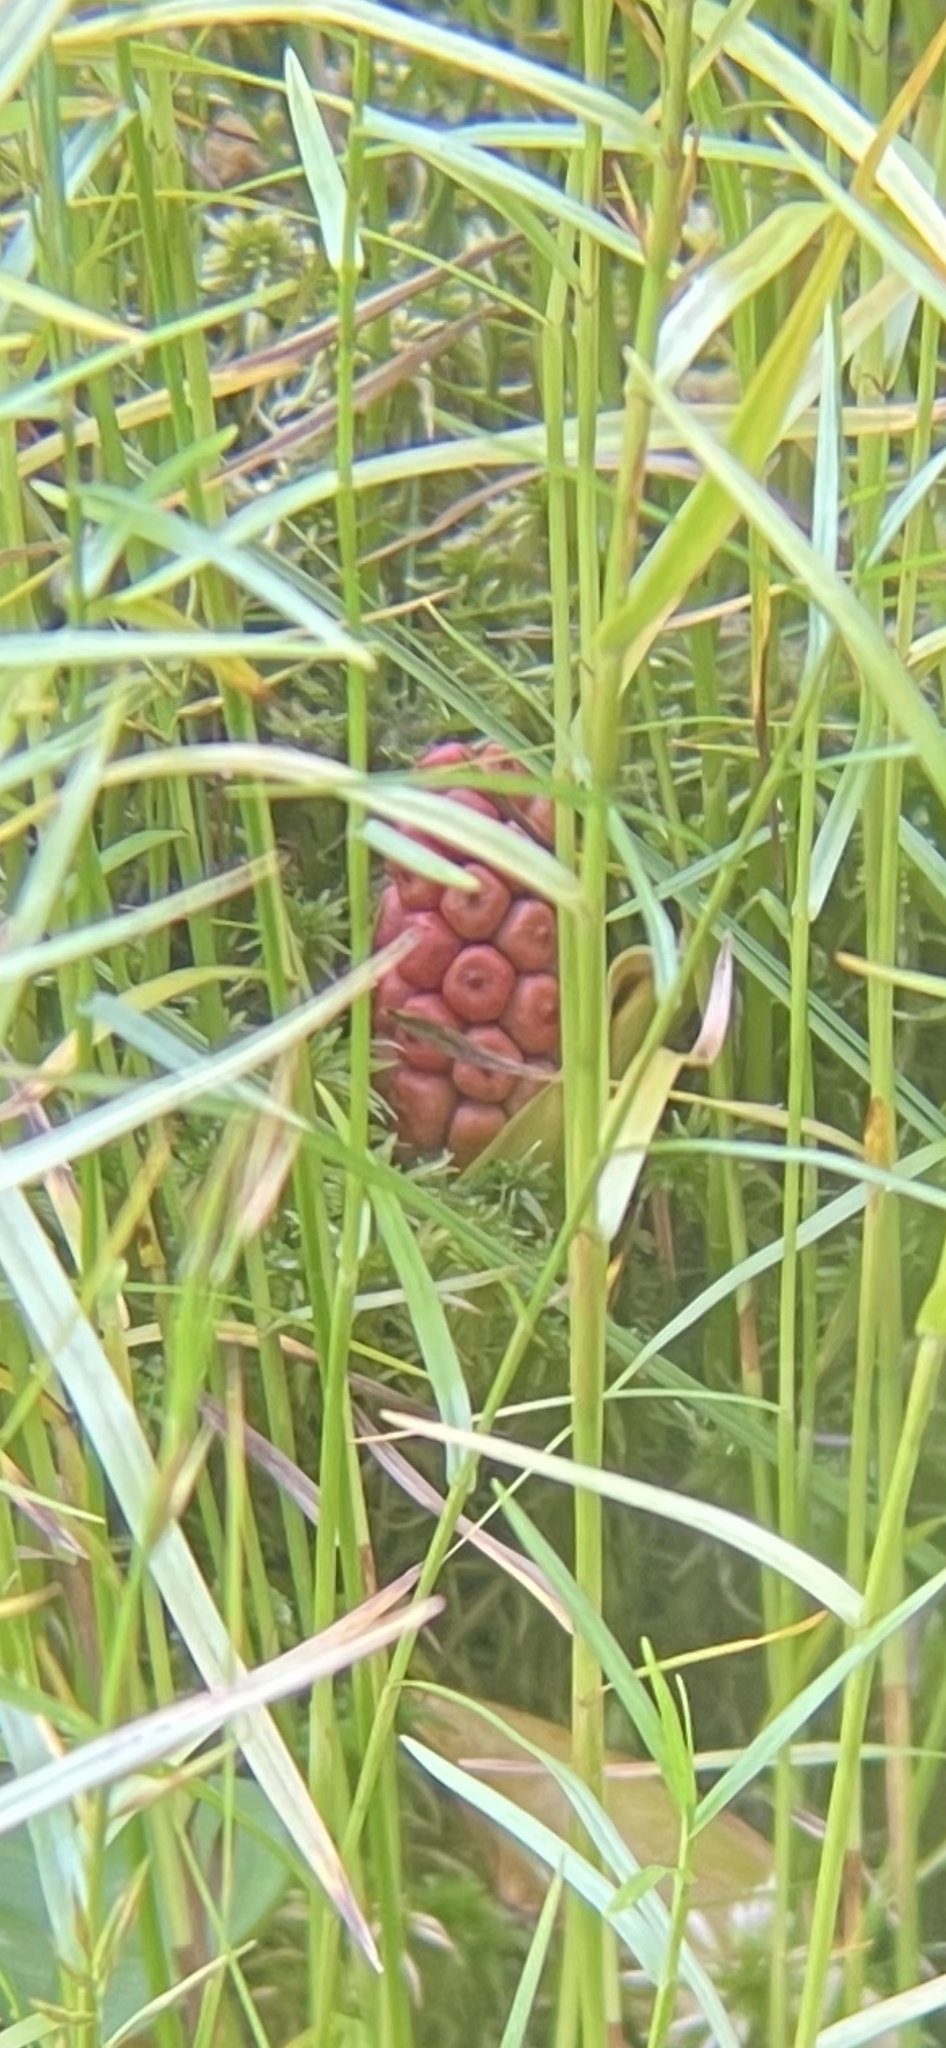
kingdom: Plantae
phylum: Tracheophyta
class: Liliopsida
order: Alismatales
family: Araceae
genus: Calla
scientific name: Calla palustris
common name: Bog arum
